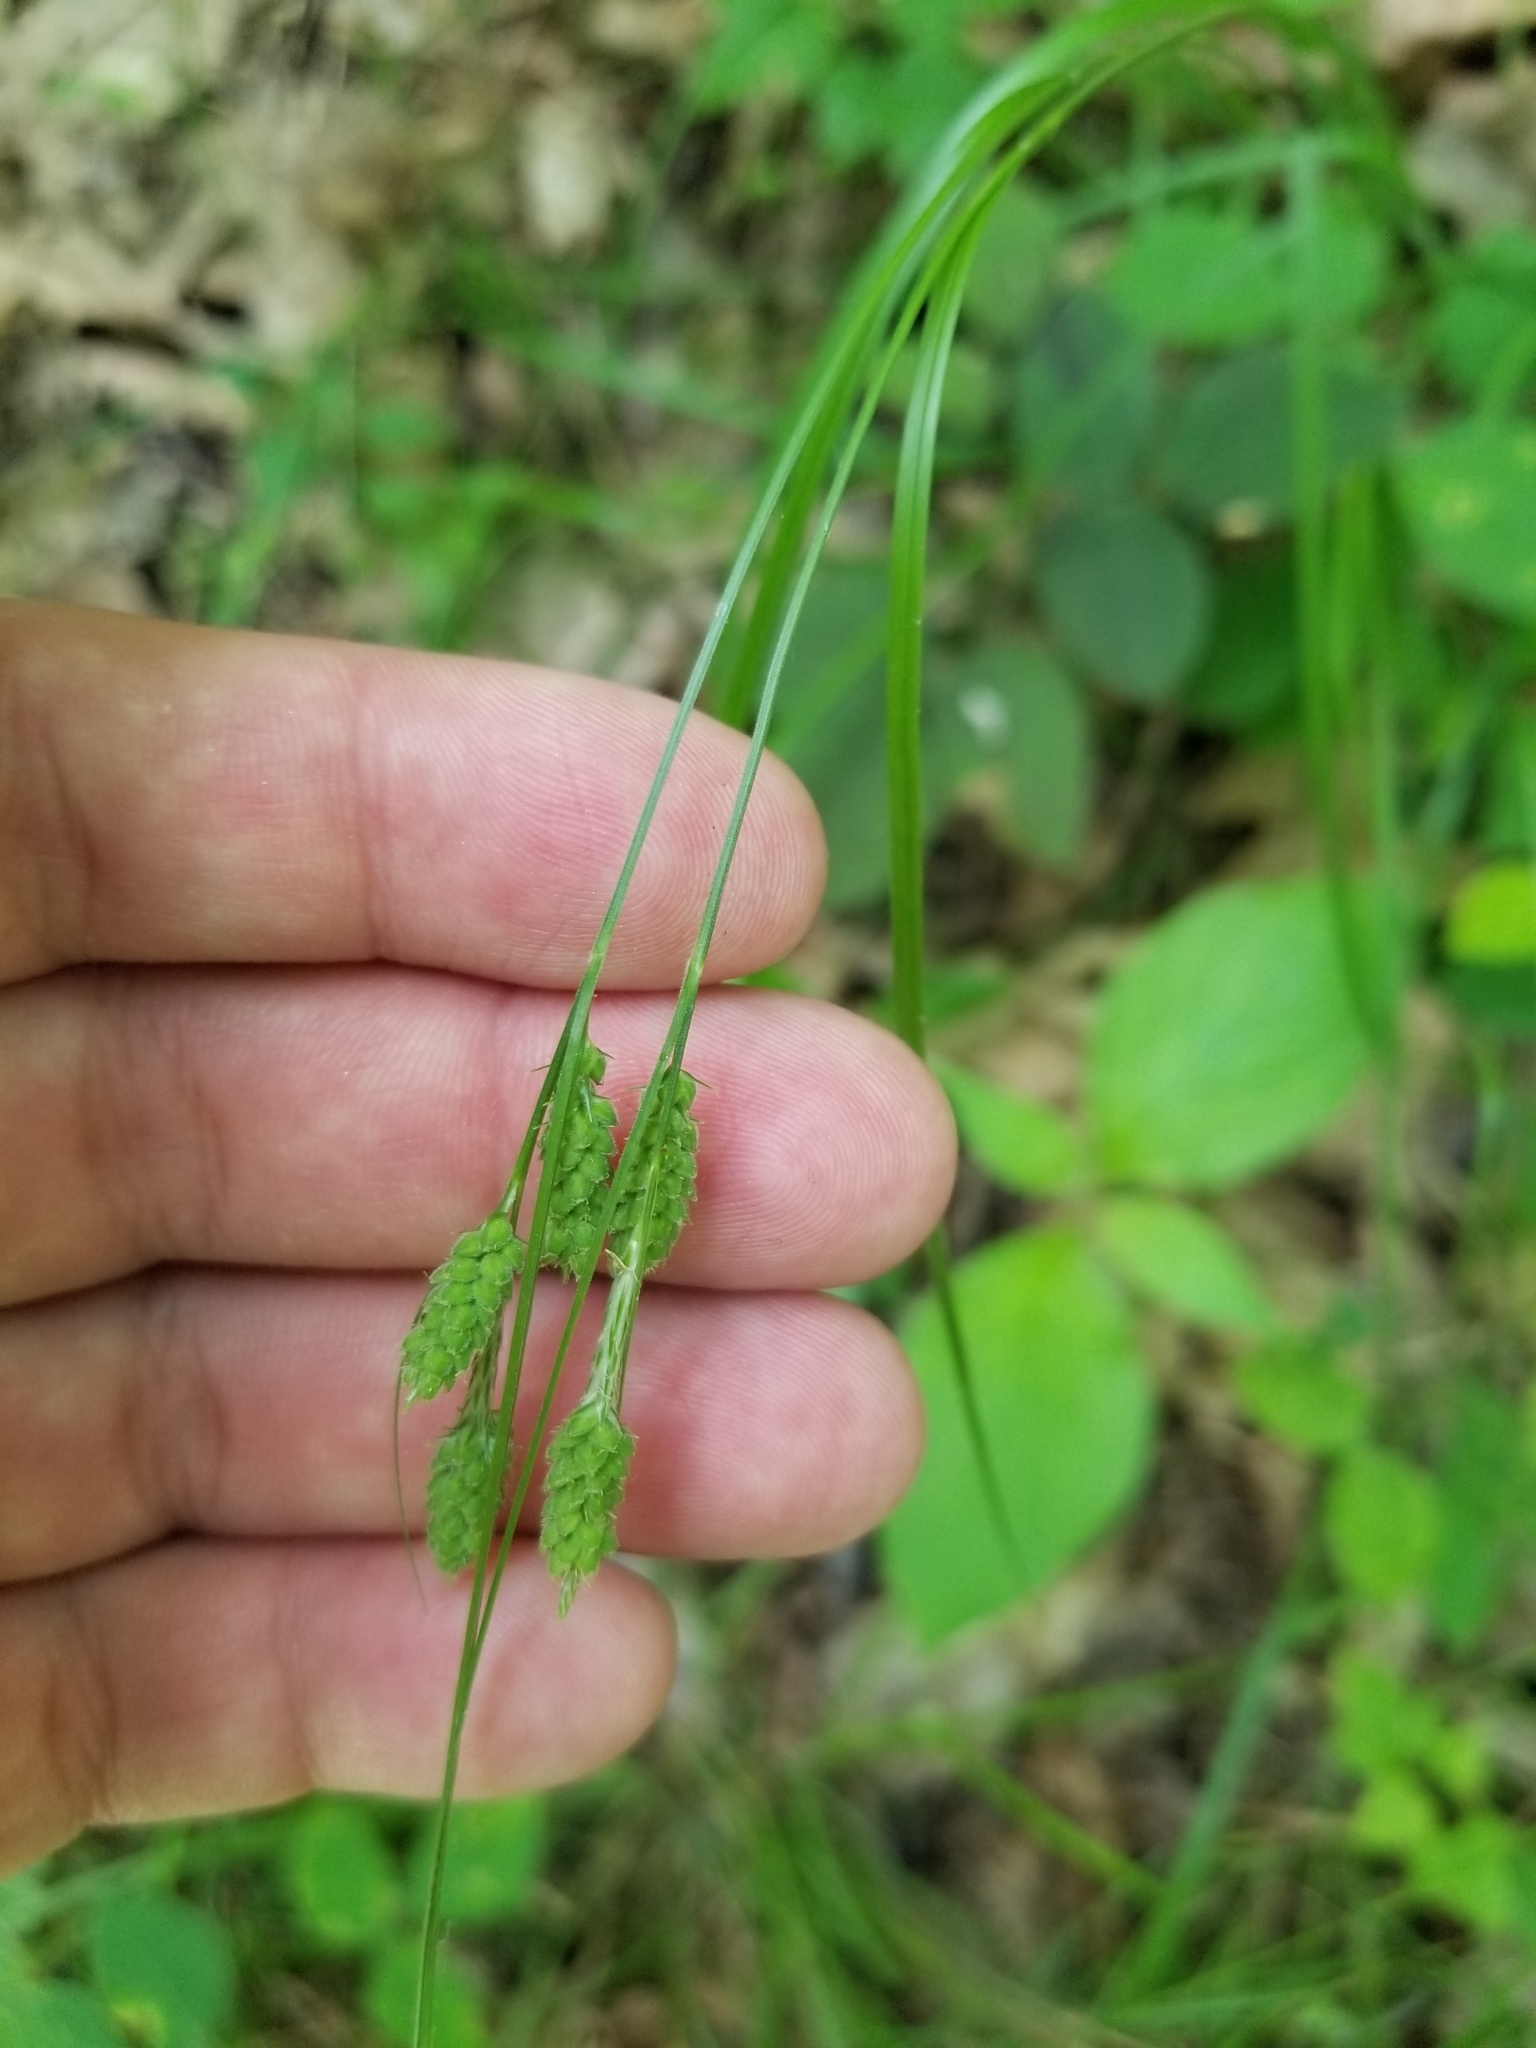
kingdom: Plantae
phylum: Tracheophyta
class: Liliopsida
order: Poales
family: Cyperaceae
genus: Carex
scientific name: Carex swanii
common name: Downy green sedge
